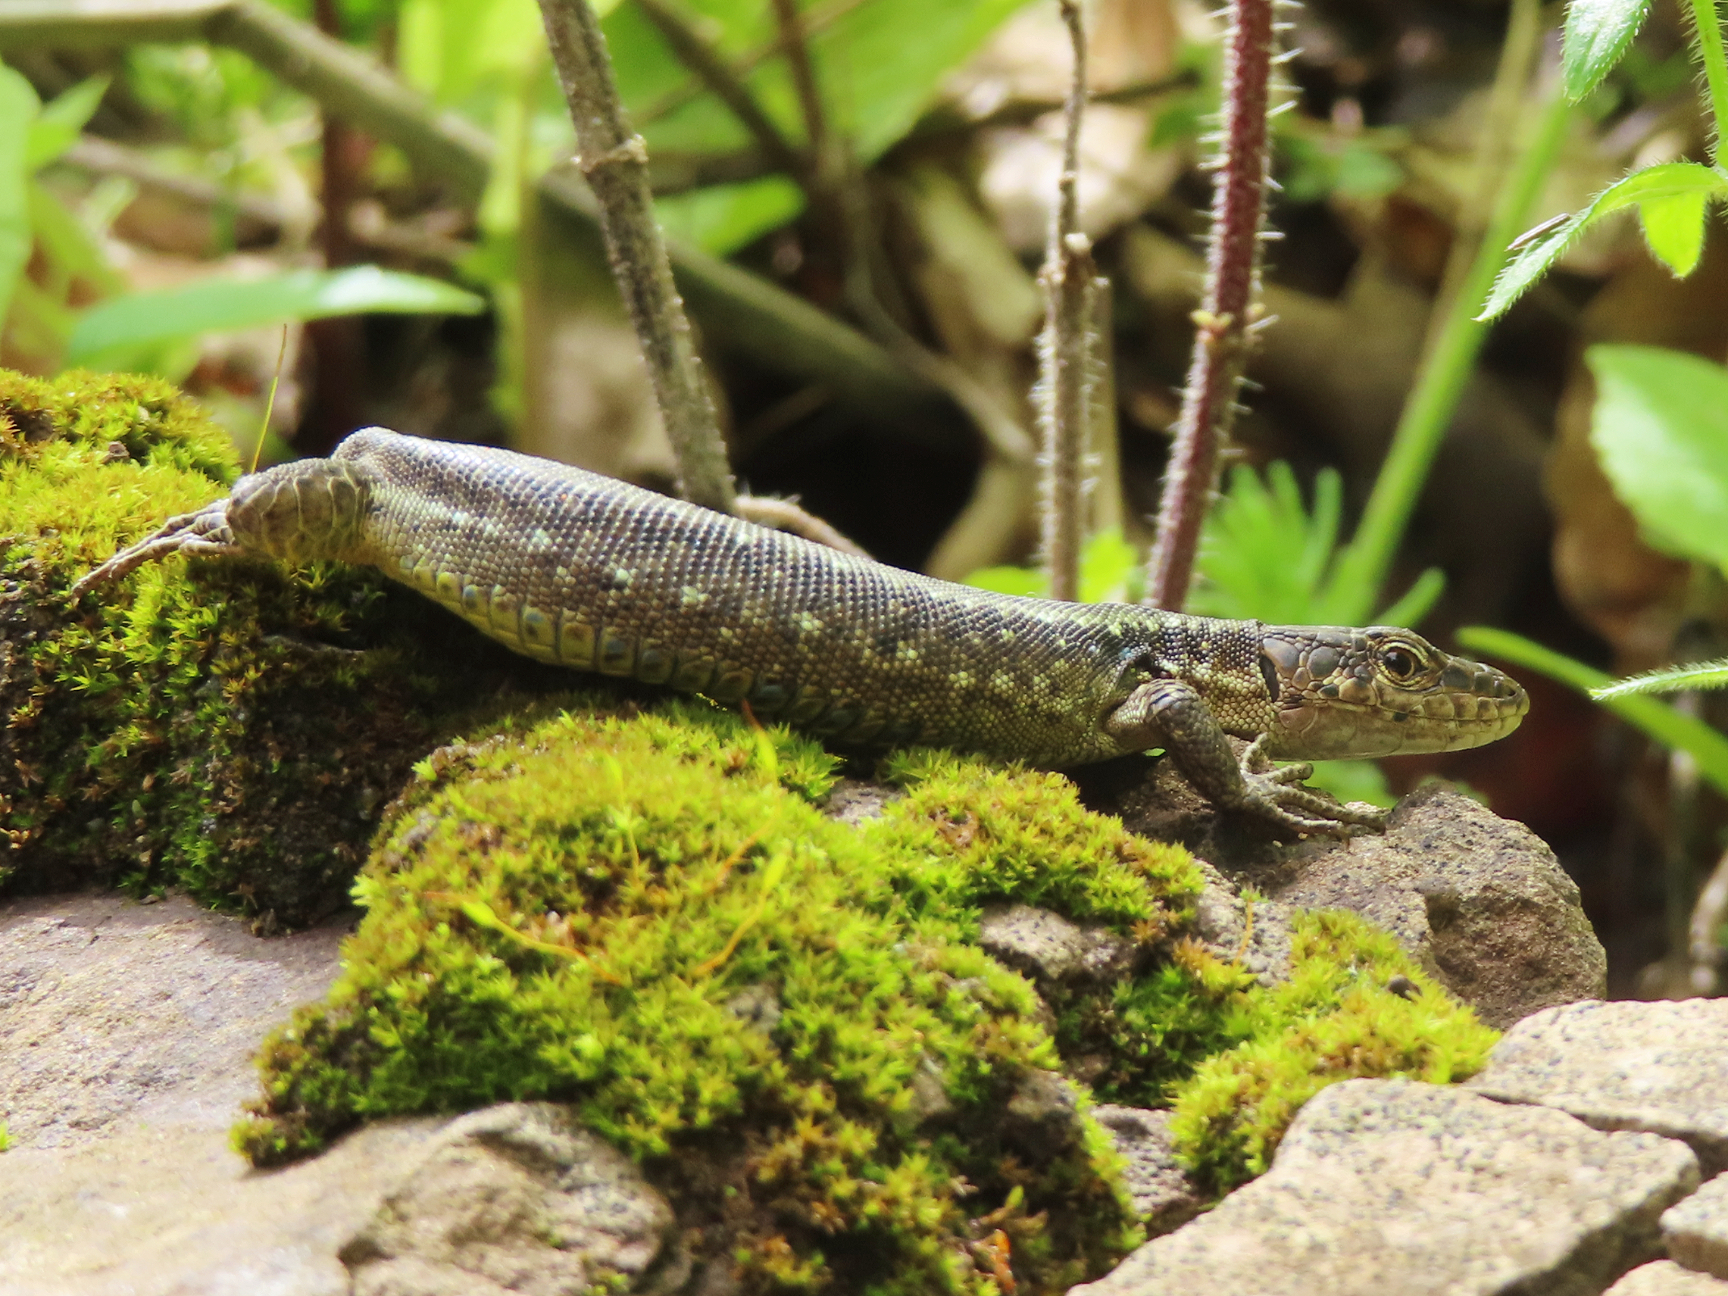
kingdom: Animalia
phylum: Chordata
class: Squamata
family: Lacertidae
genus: Darevskia
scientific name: Darevskia armeniaca
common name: Armenian lizard
